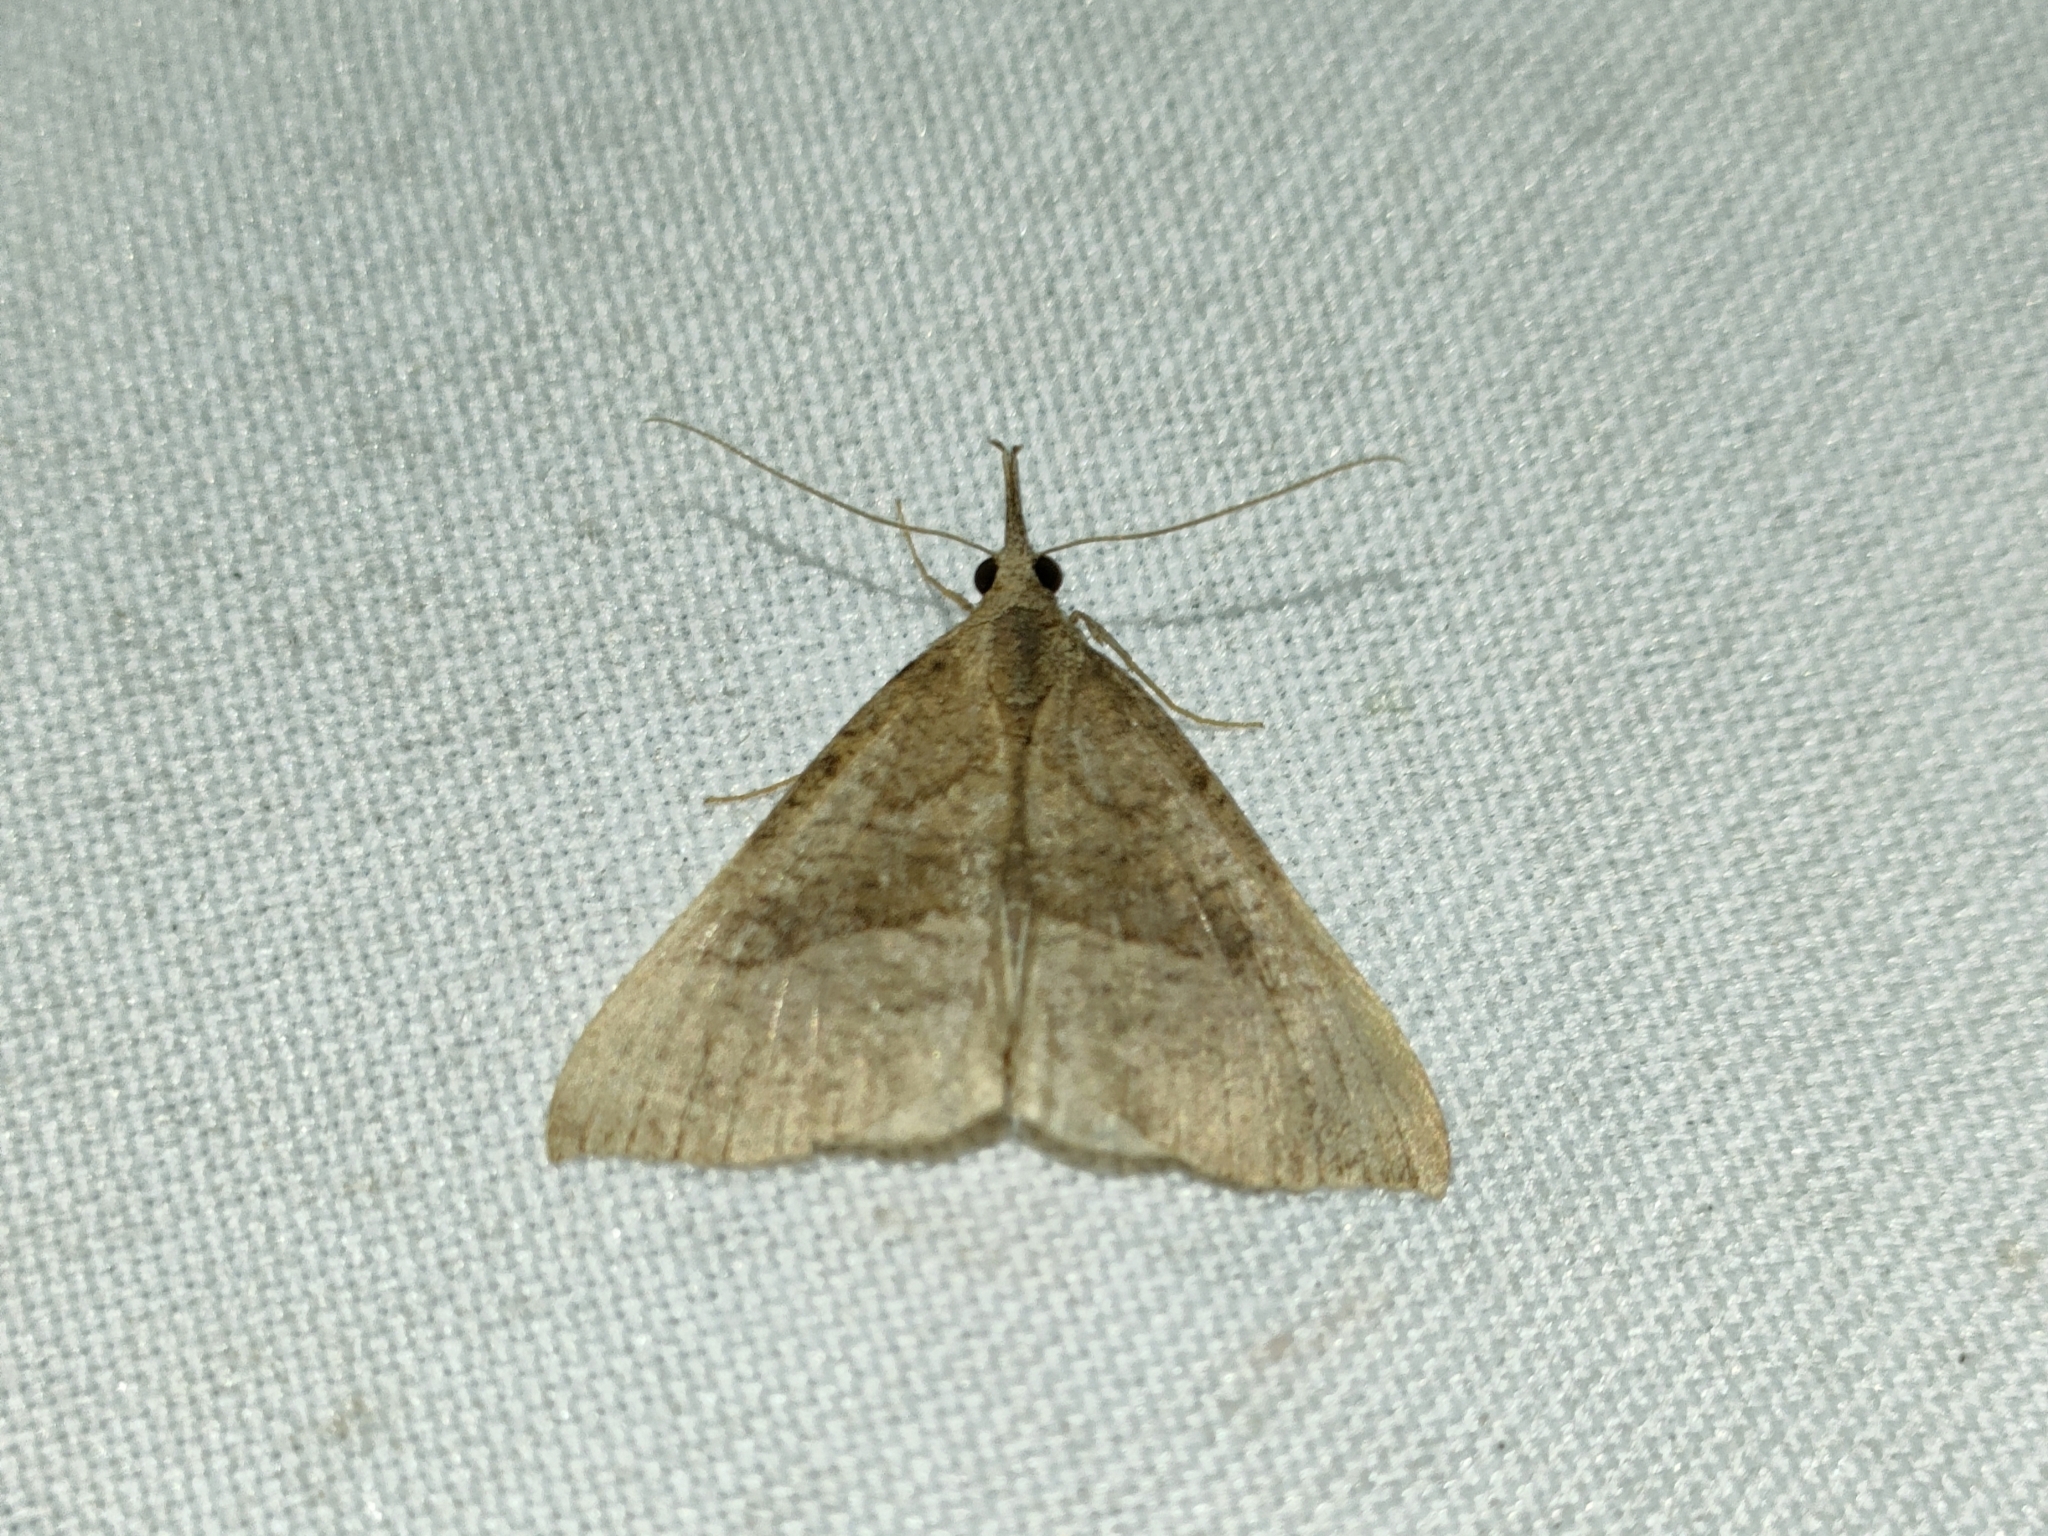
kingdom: Animalia
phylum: Arthropoda
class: Insecta
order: Lepidoptera
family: Erebidae
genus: Hypena
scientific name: Hypena proboscidalis
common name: Snout
